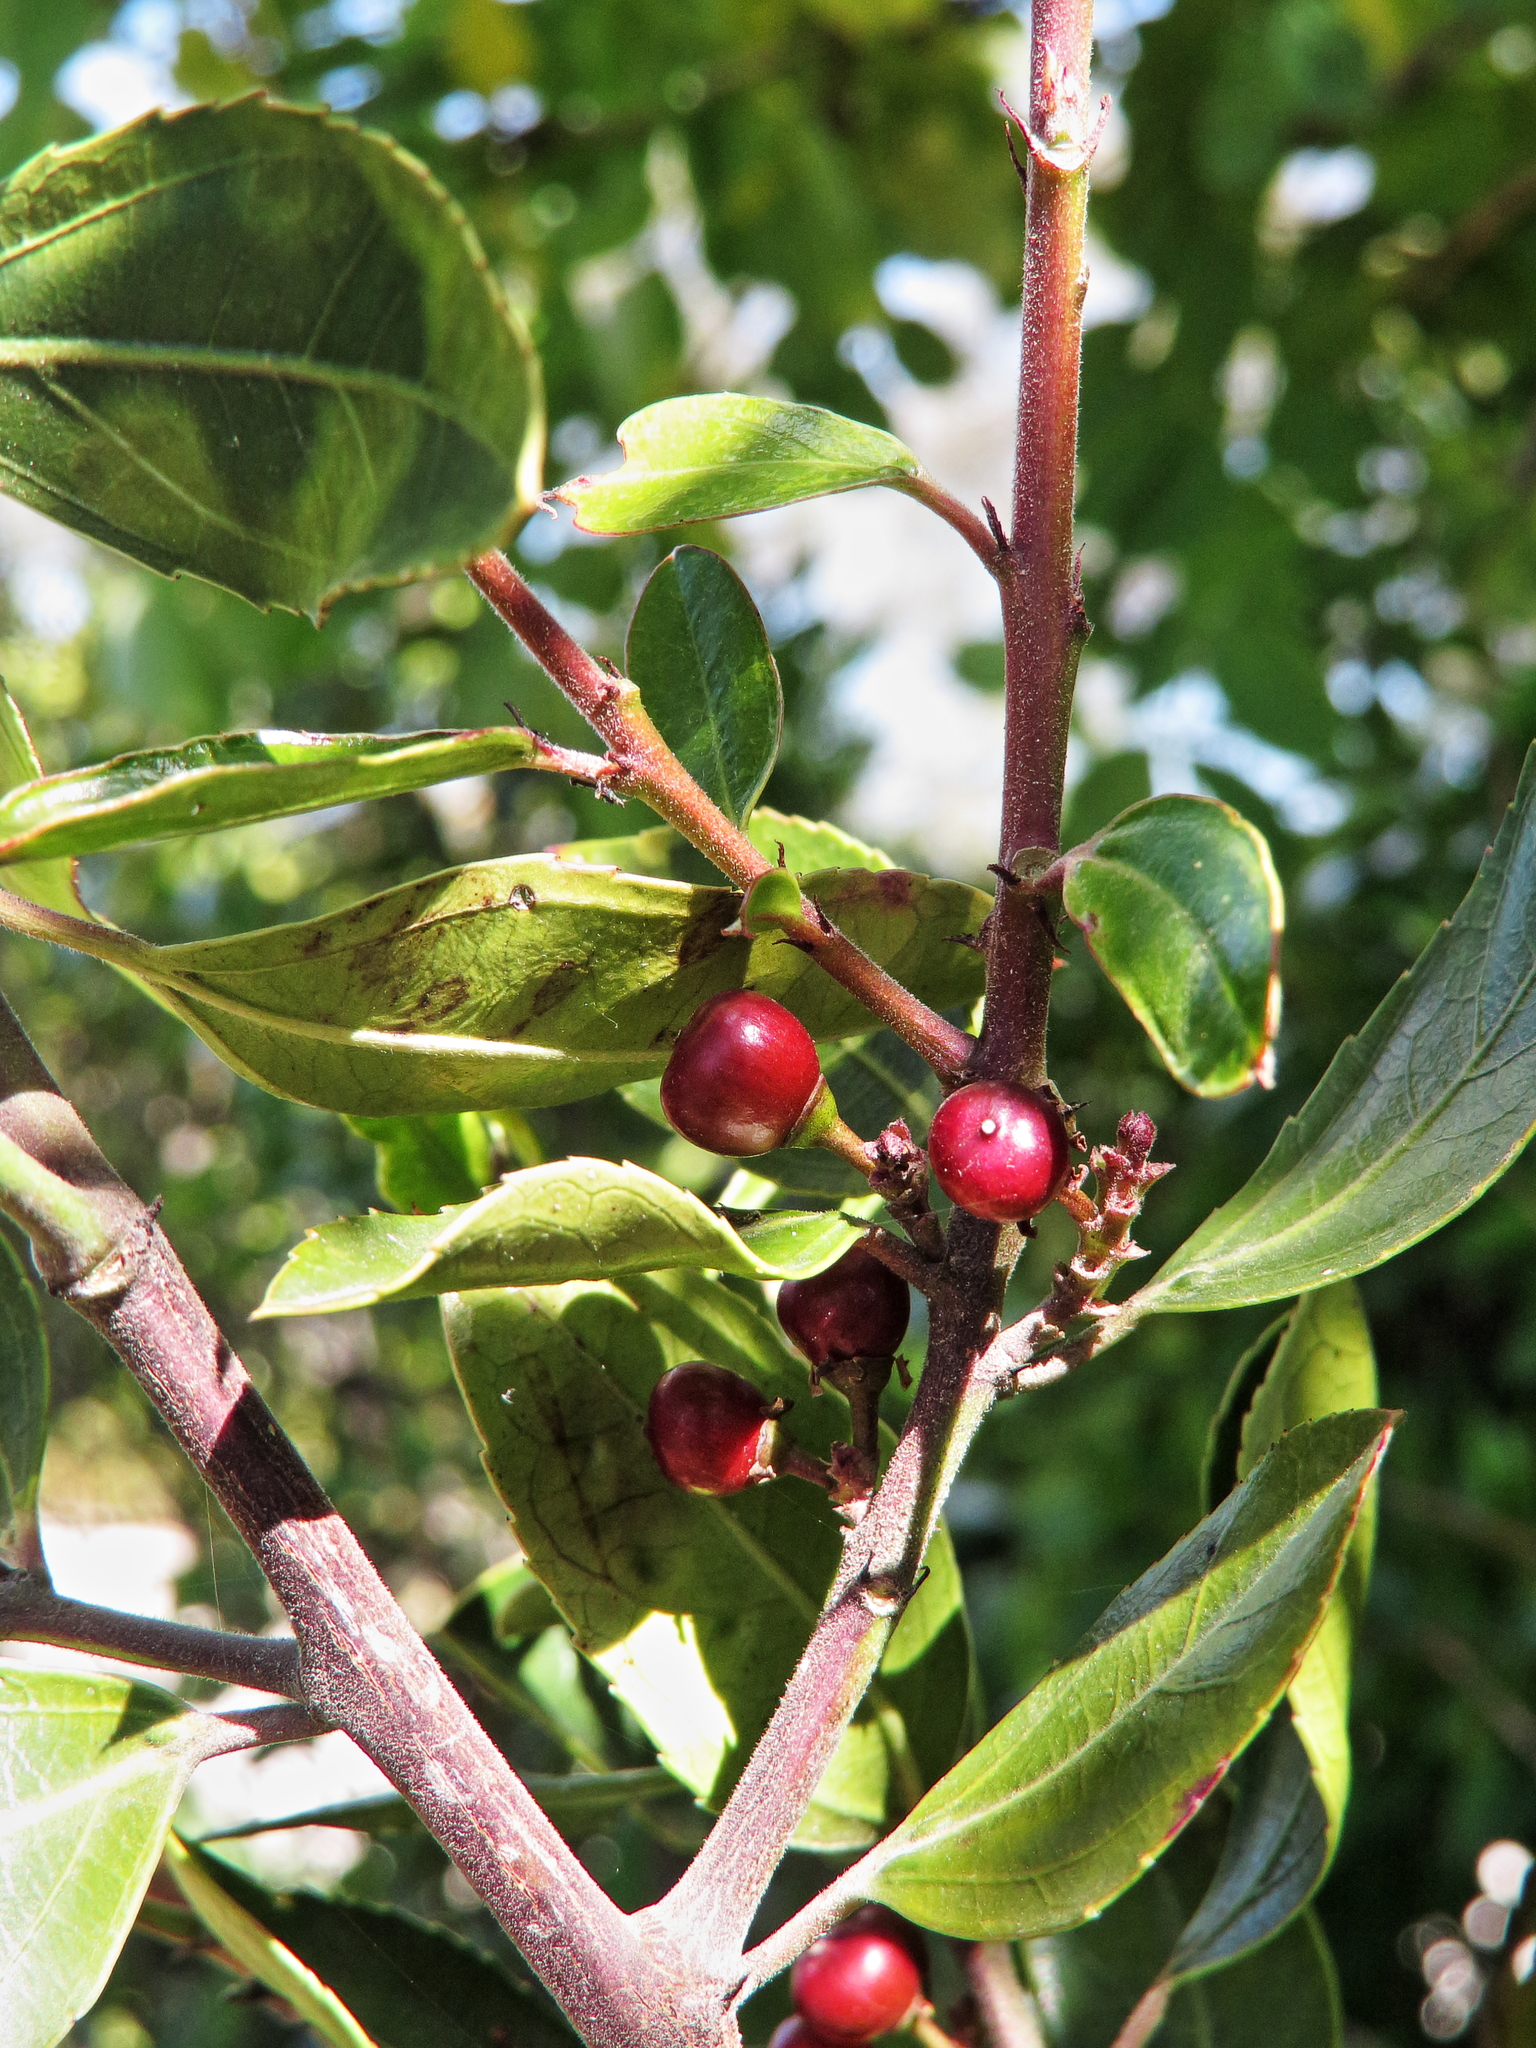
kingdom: Plantae
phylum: Tracheophyta
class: Magnoliopsida
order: Rosales
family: Rhamnaceae
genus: Rhamnus
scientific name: Rhamnus alaternus
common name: Mediterranean buckthorn
